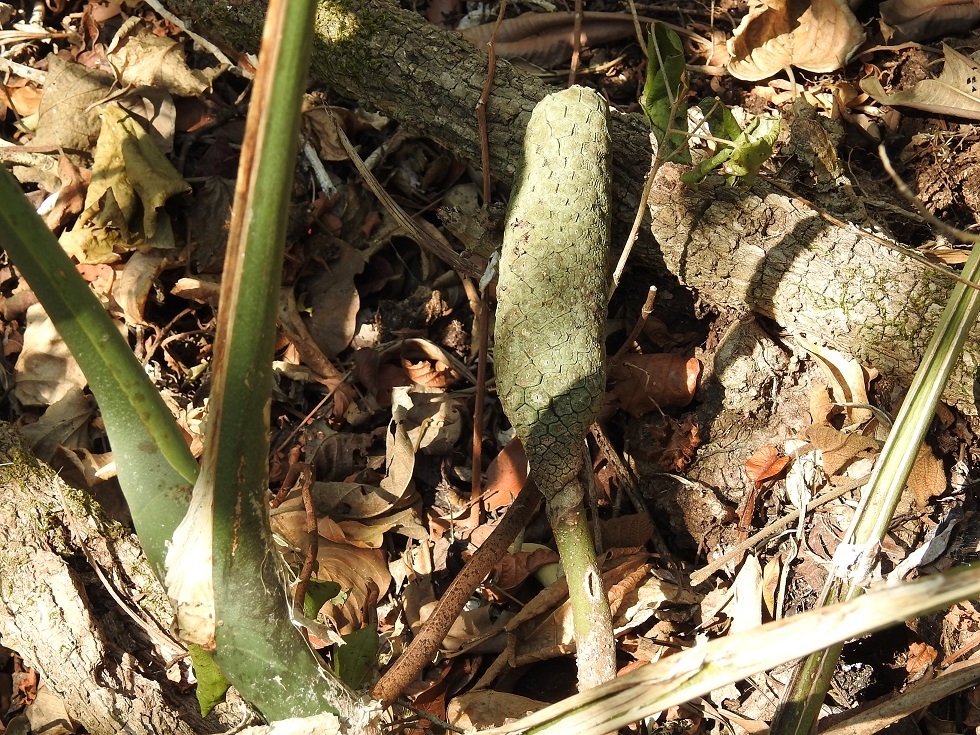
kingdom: Plantae
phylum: Tracheophyta
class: Liliopsida
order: Alismatales
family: Araceae
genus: Monstera
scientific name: Monstera deliciosa
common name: Cut-leaf-philodendron
